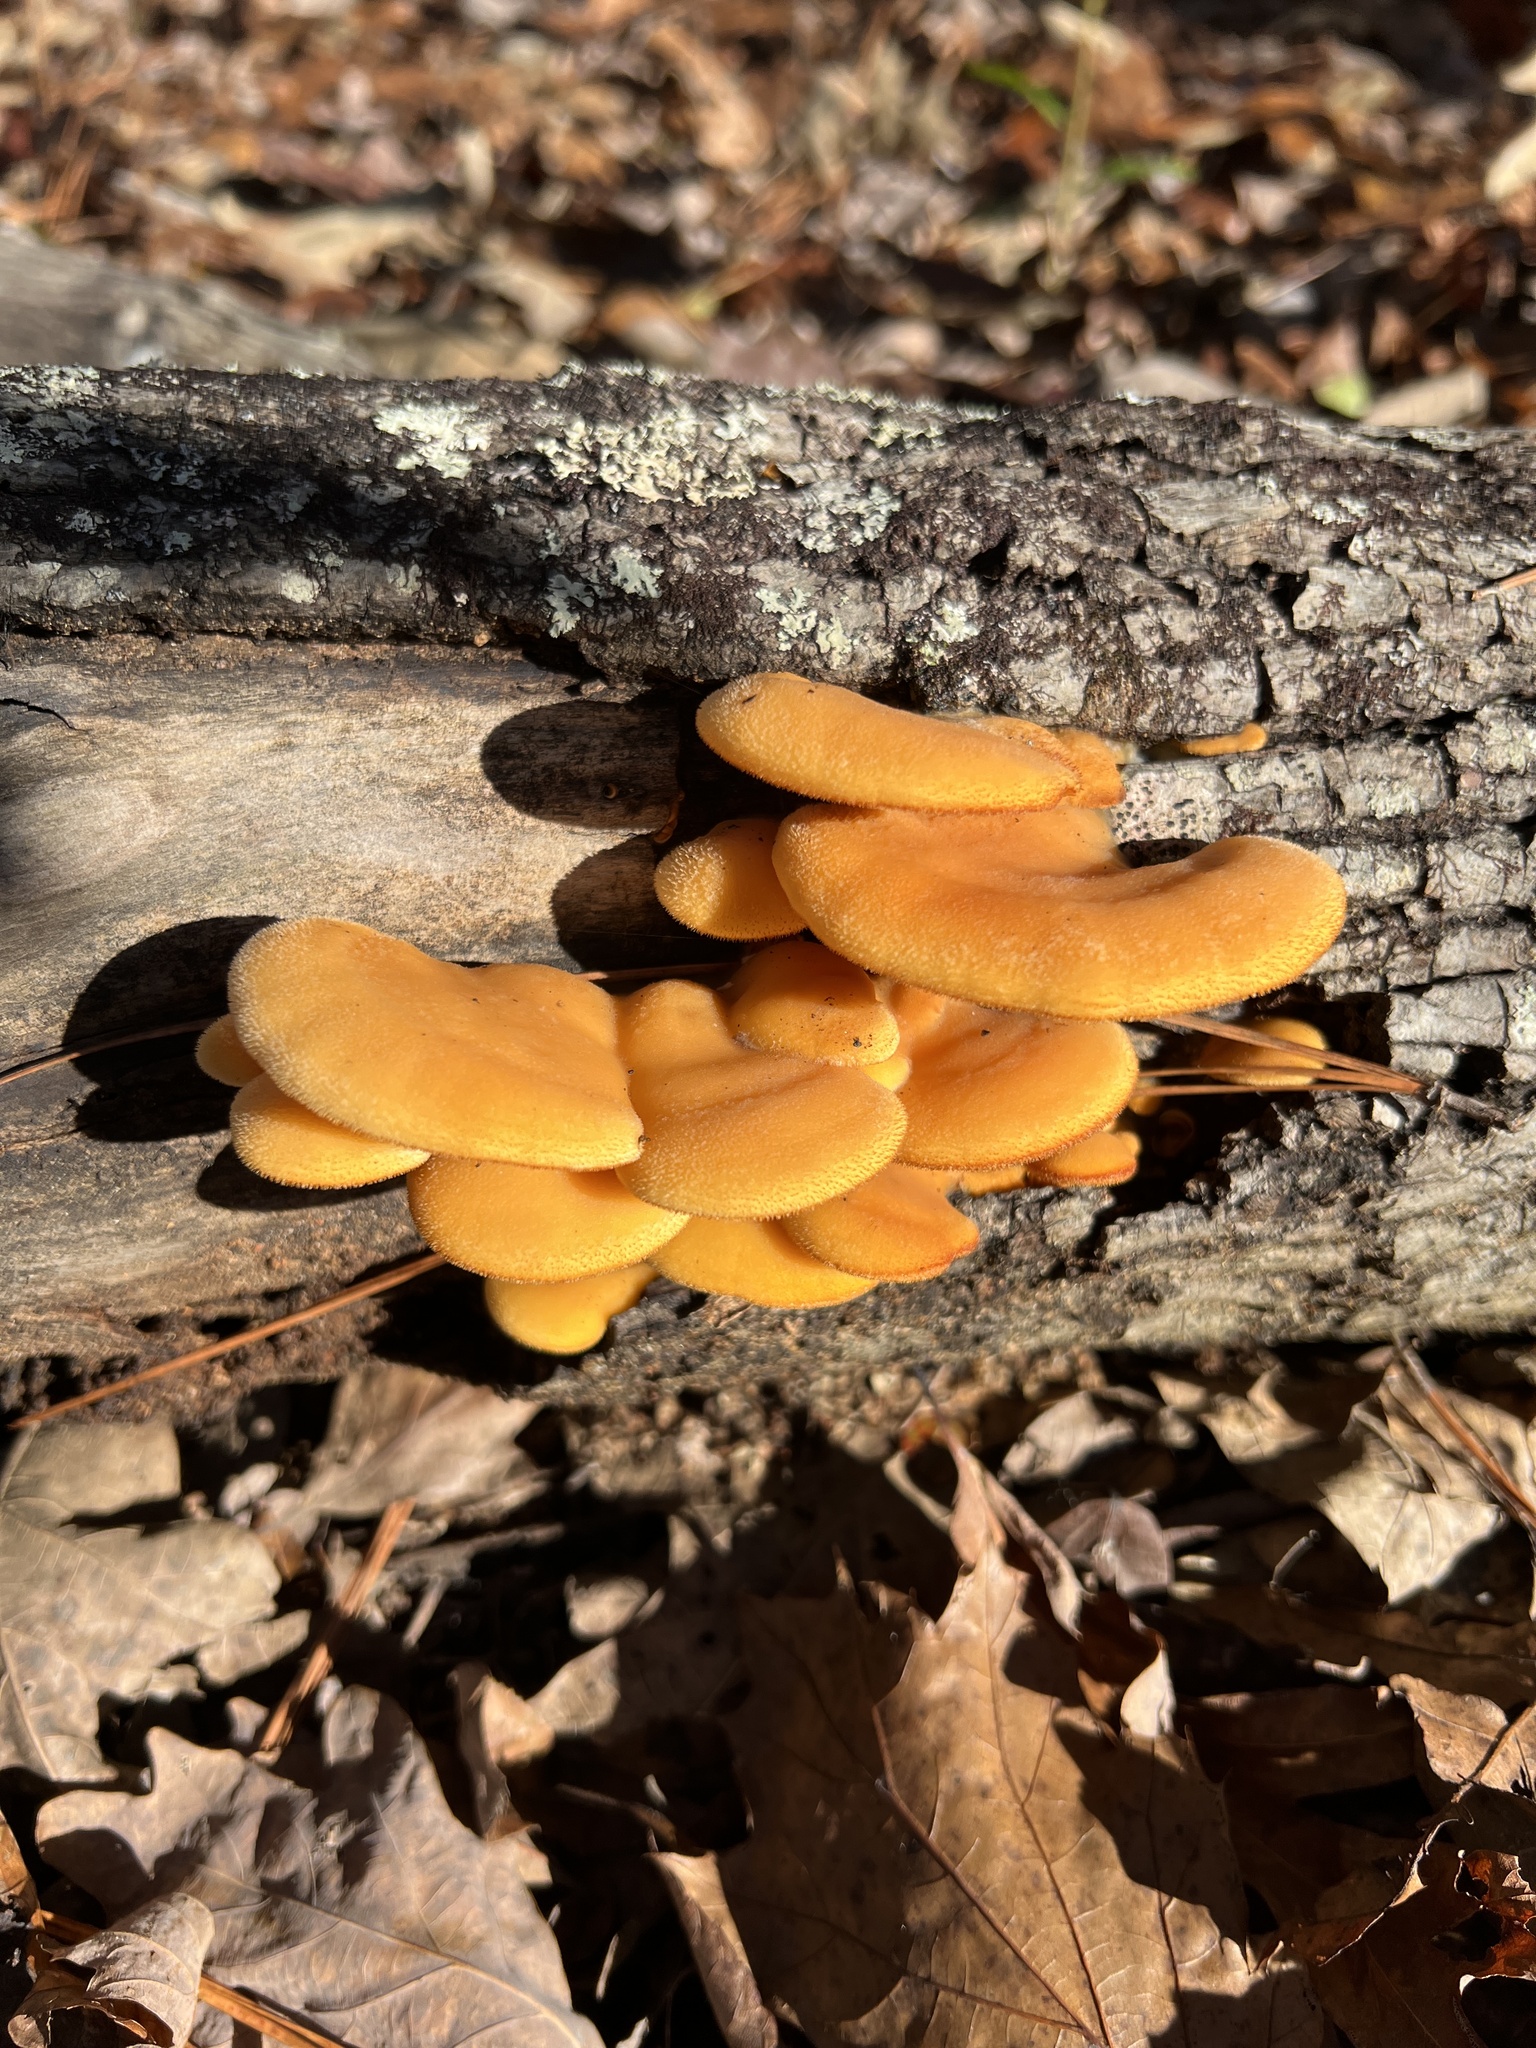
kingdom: Fungi
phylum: Basidiomycota
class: Agaricomycetes
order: Agaricales
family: Phyllotopsidaceae
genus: Phyllotopsis
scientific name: Phyllotopsis nidulans
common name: Orange mock oyster
